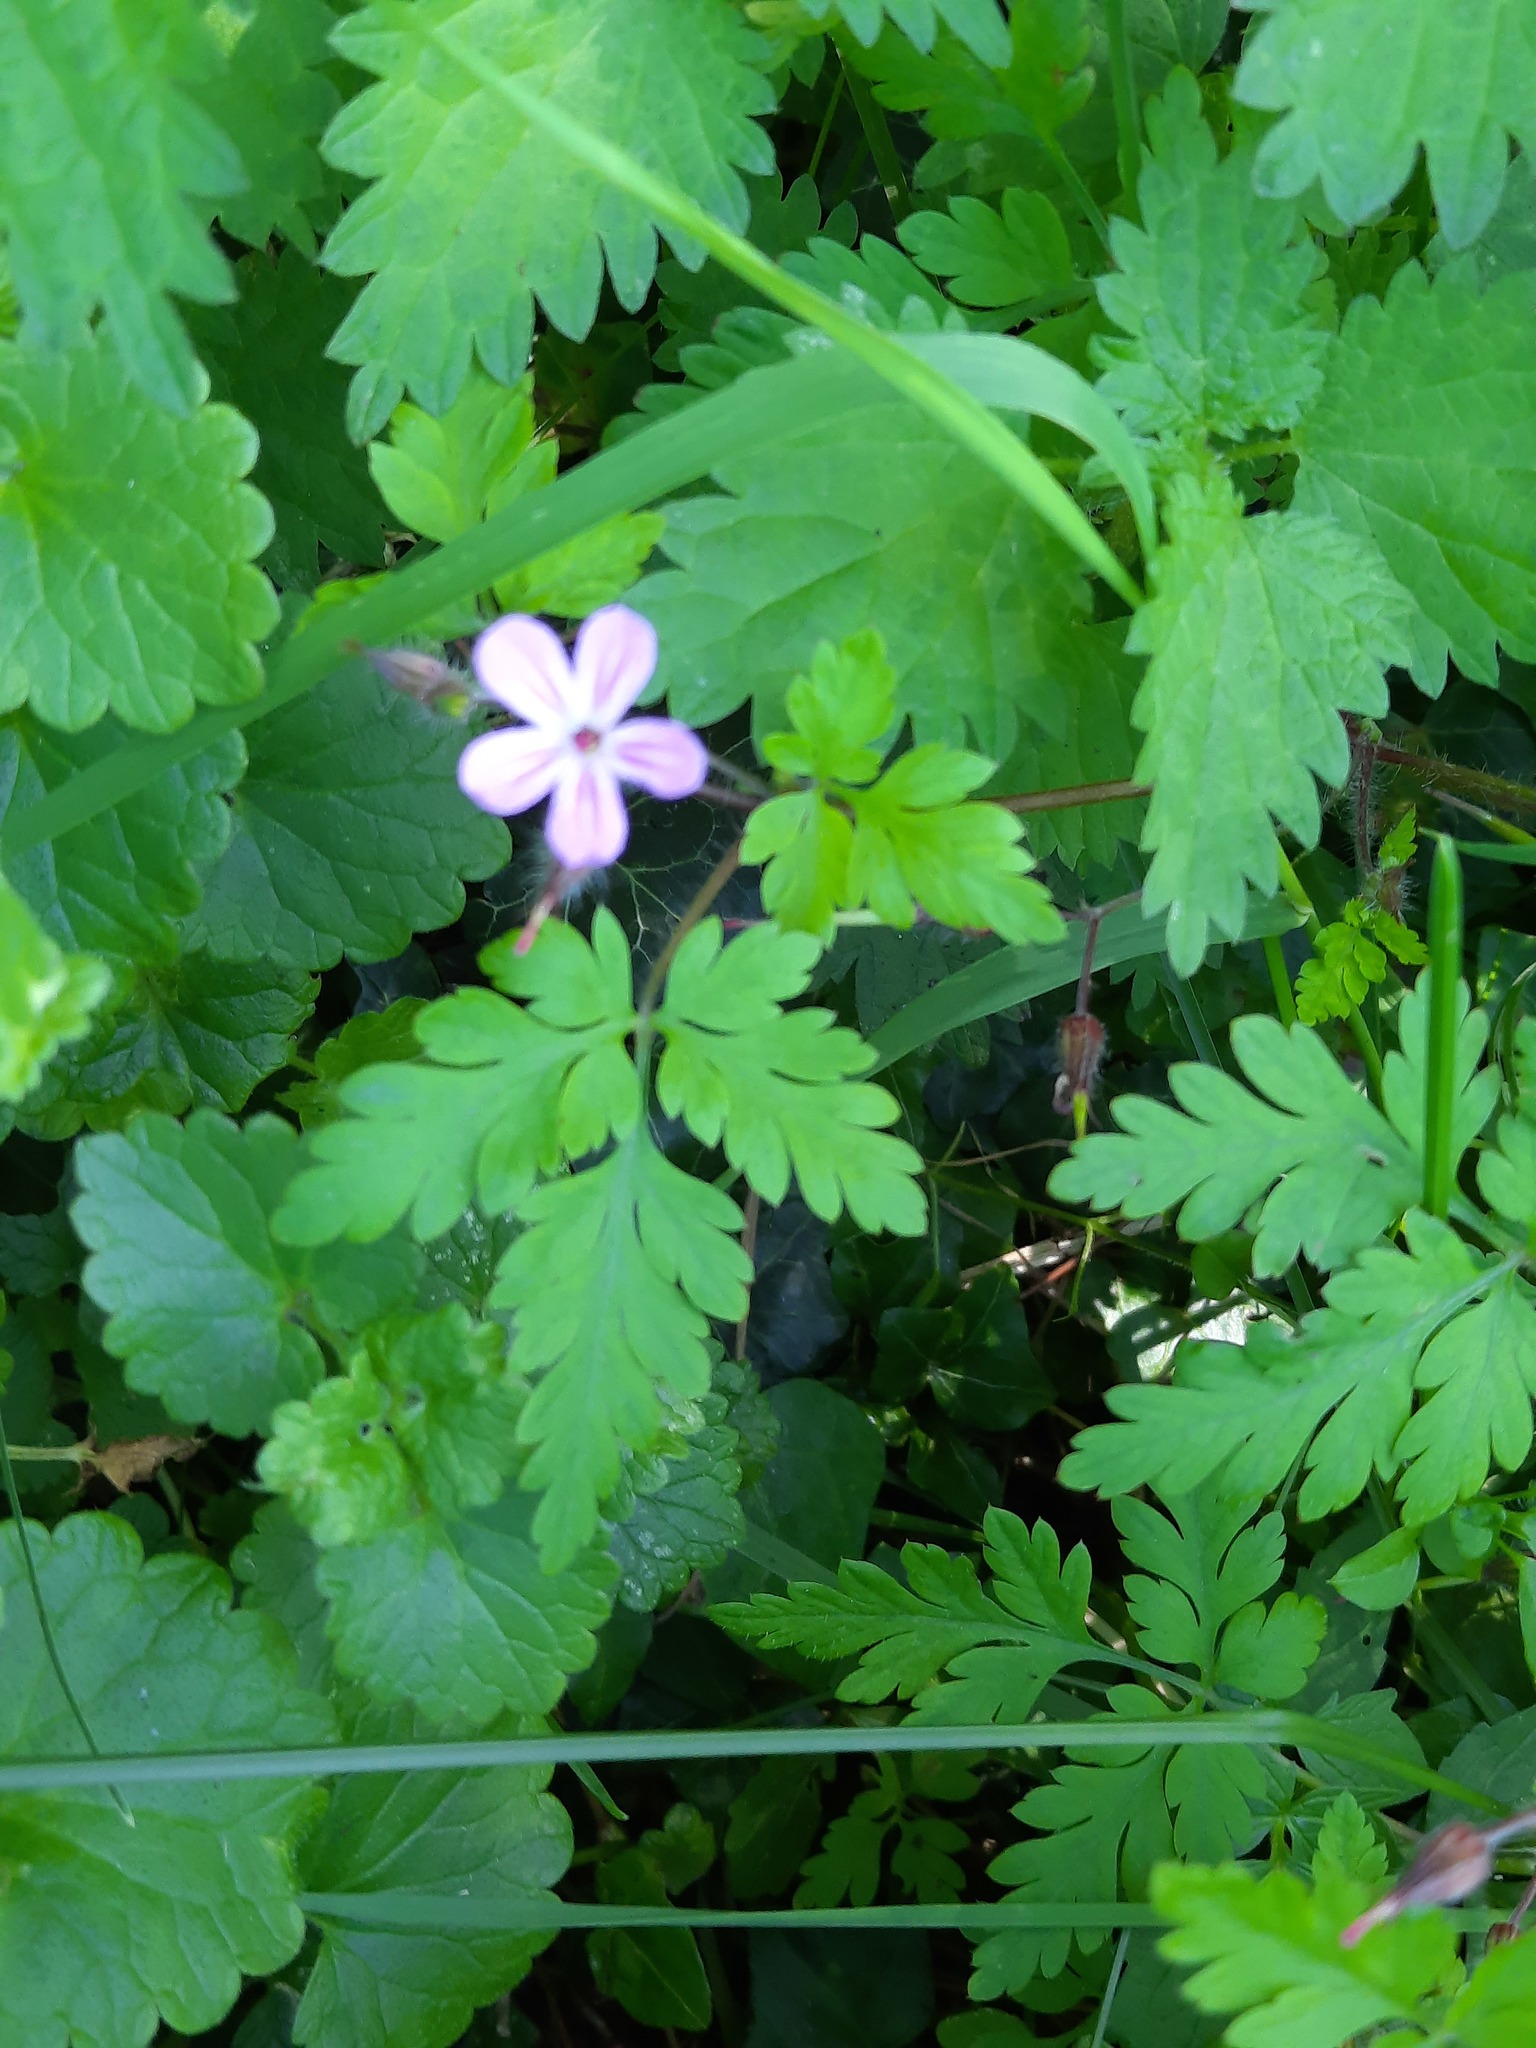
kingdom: Plantae
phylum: Tracheophyta
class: Magnoliopsida
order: Geraniales
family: Geraniaceae
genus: Geranium
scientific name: Geranium robertianum
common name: Herb-robert
